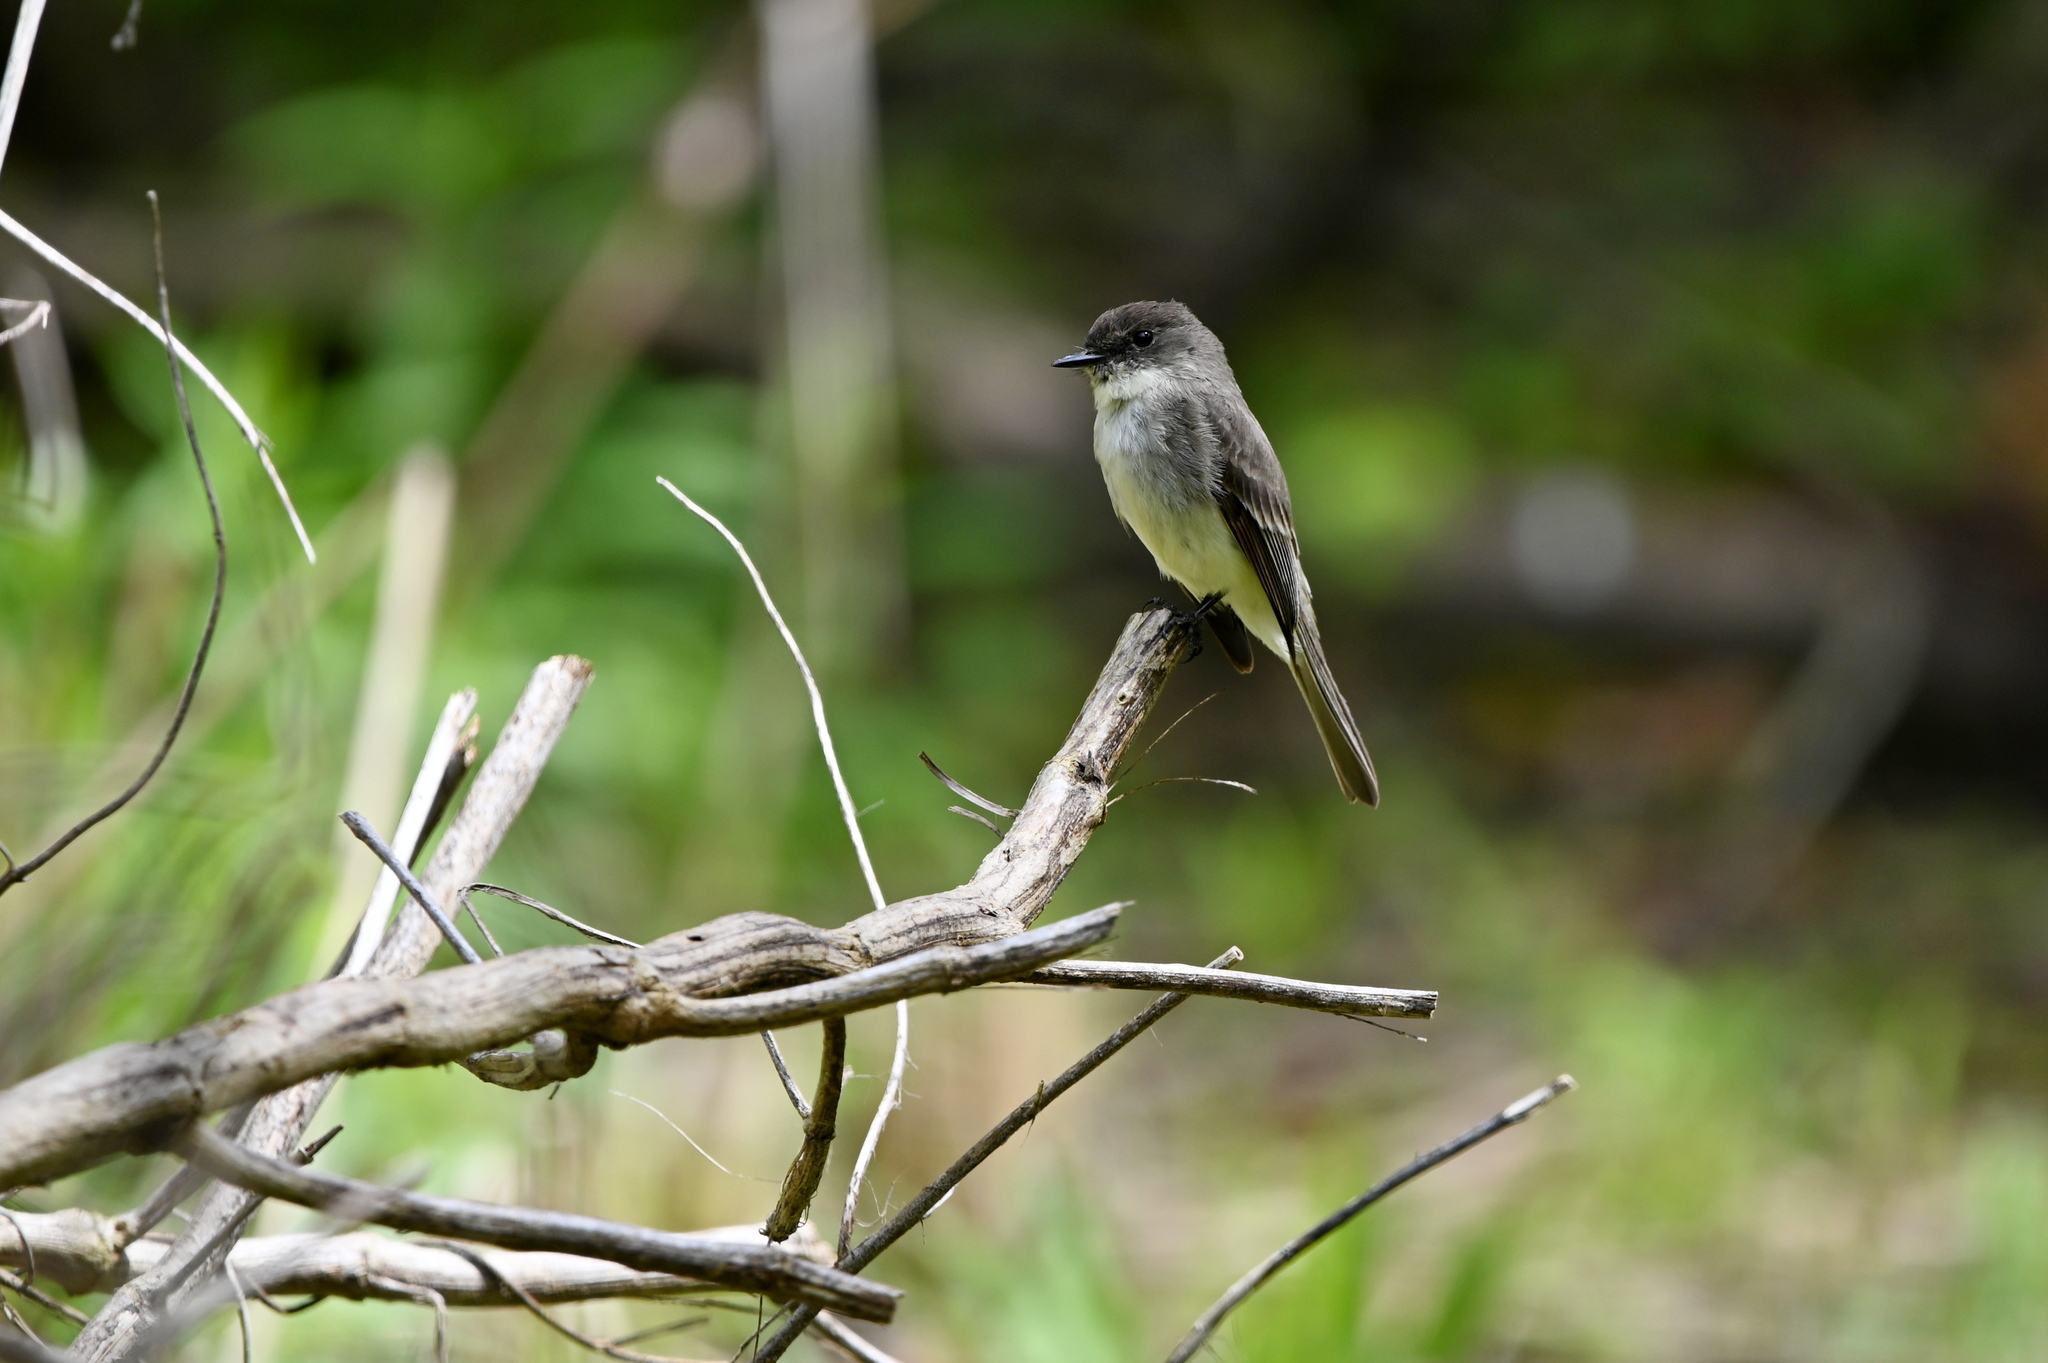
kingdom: Animalia
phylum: Chordata
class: Aves
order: Passeriformes
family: Tyrannidae
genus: Sayornis
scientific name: Sayornis phoebe
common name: Eastern phoebe
